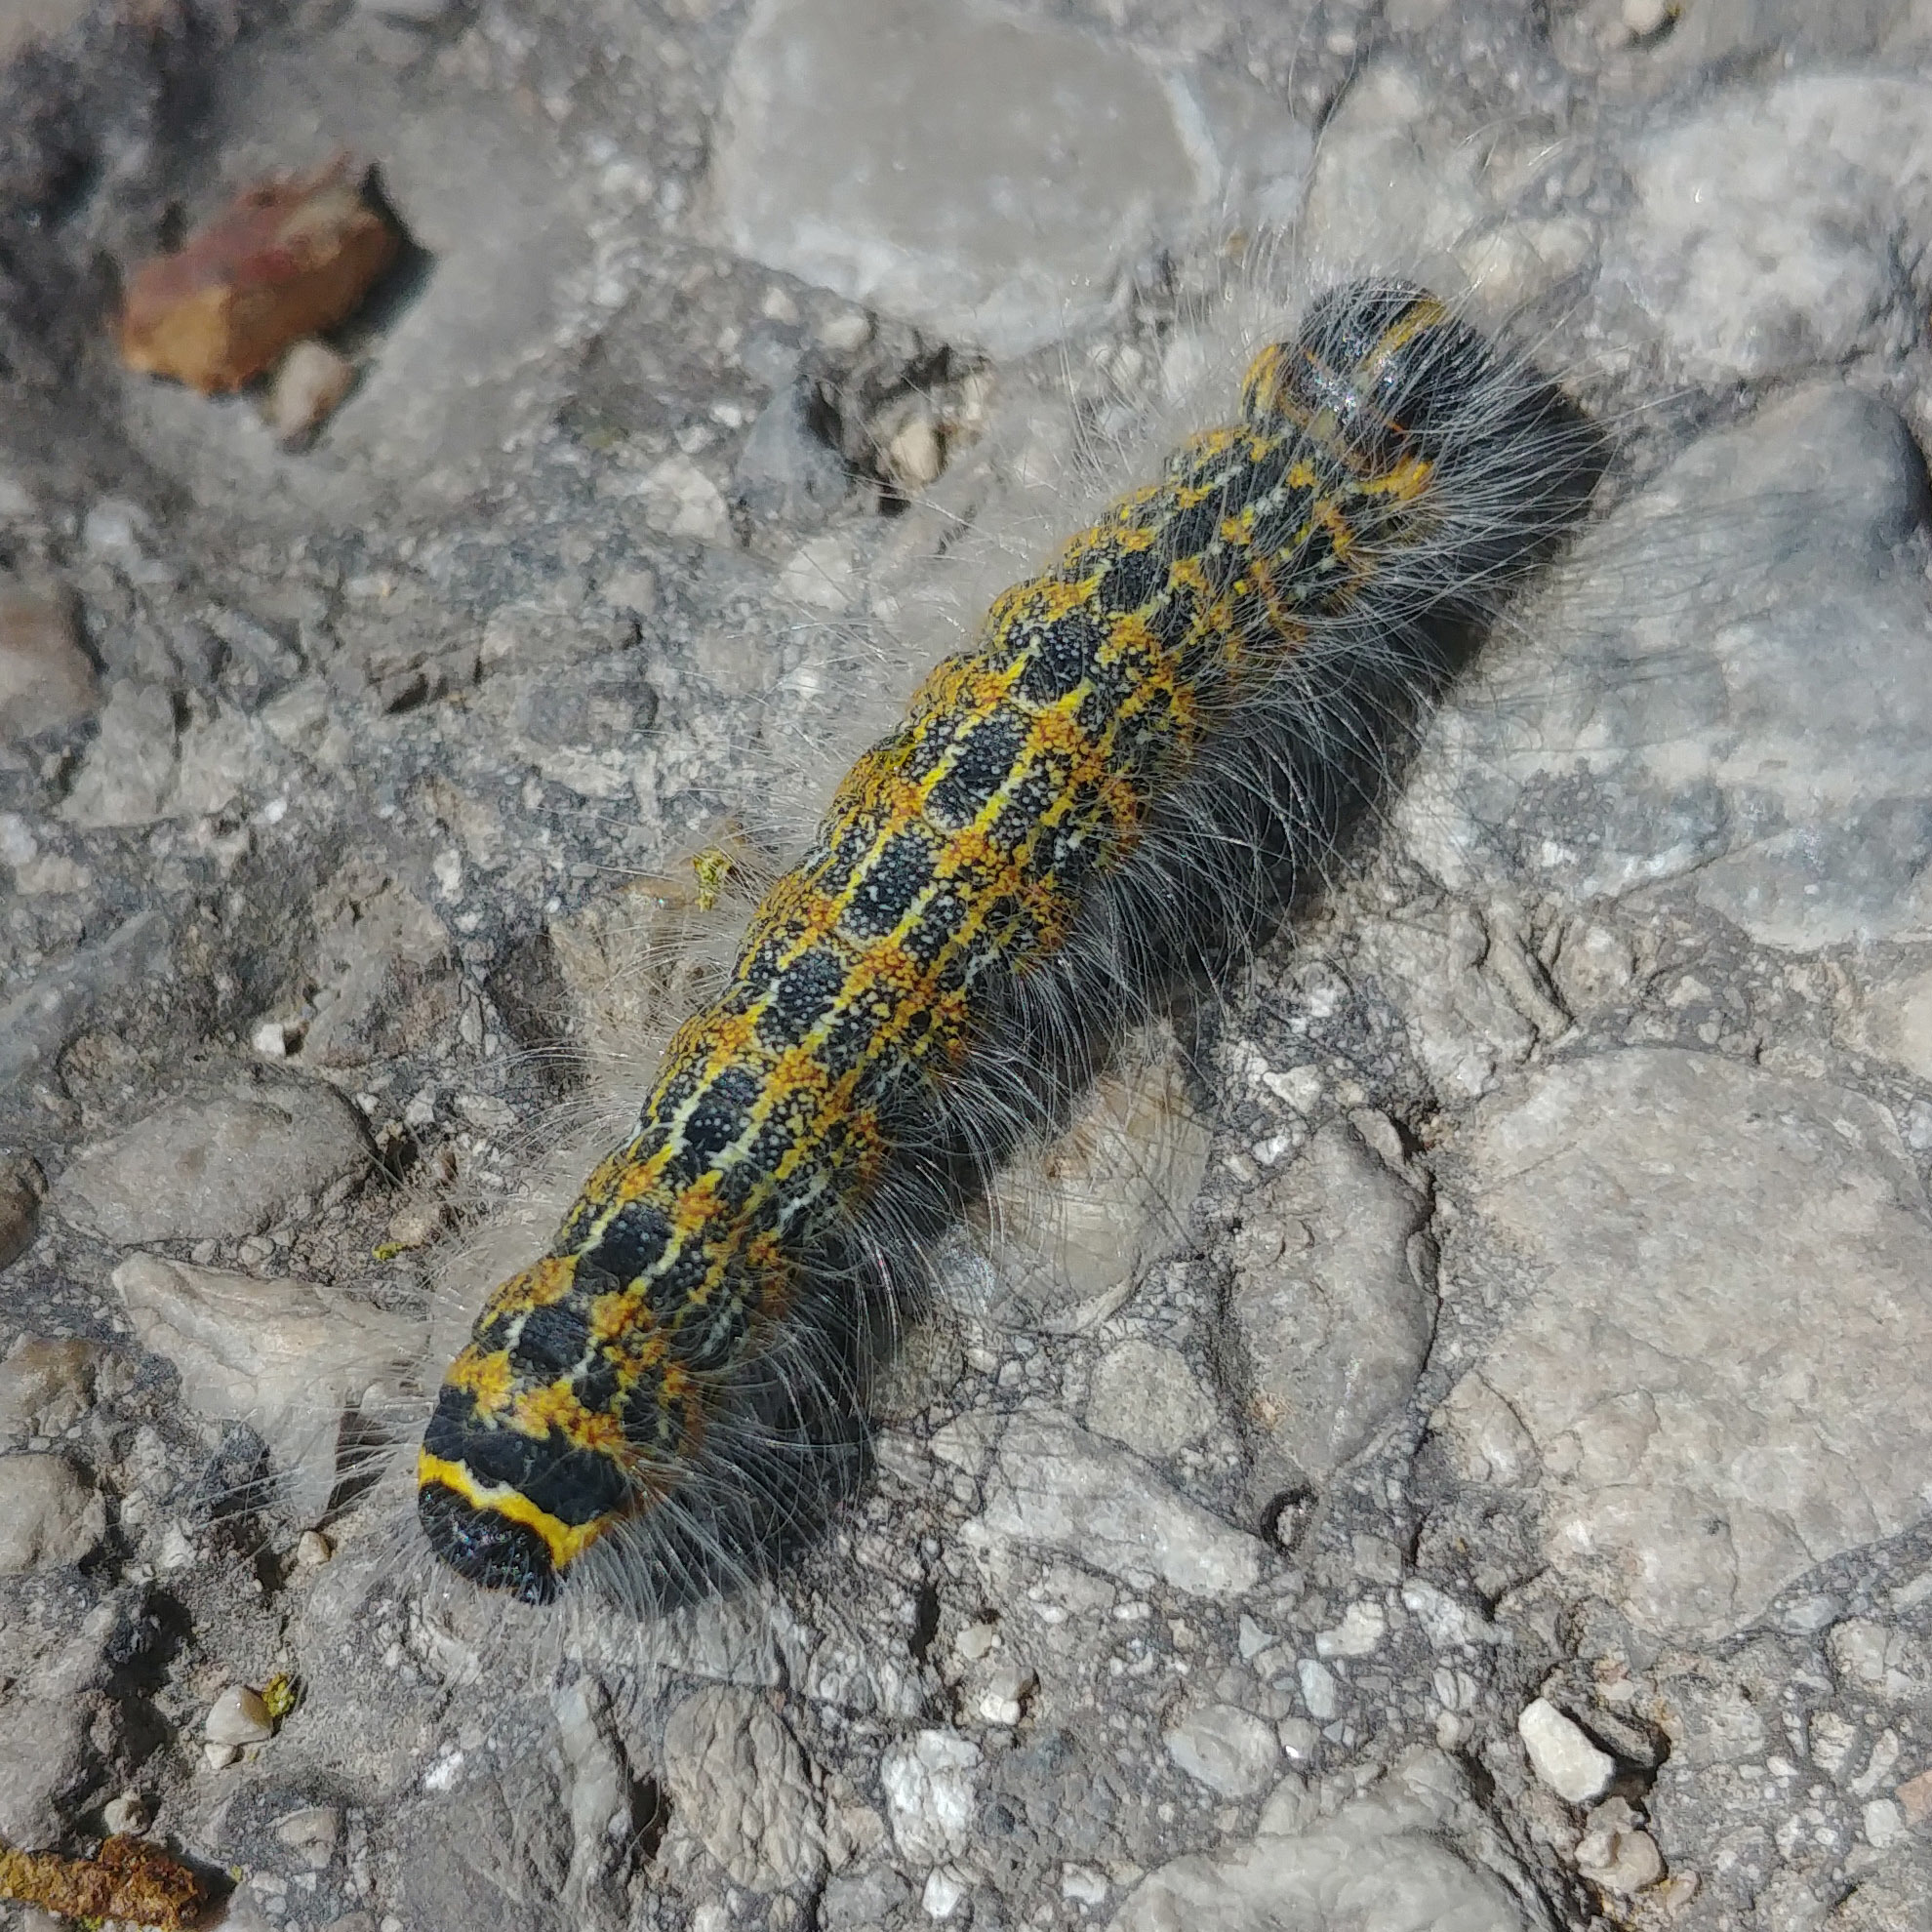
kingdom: Animalia
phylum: Arthropoda
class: Insecta
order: Lepidoptera
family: Notodontidae
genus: Phalera
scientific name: Phalera bucephala
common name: Buff-tip
